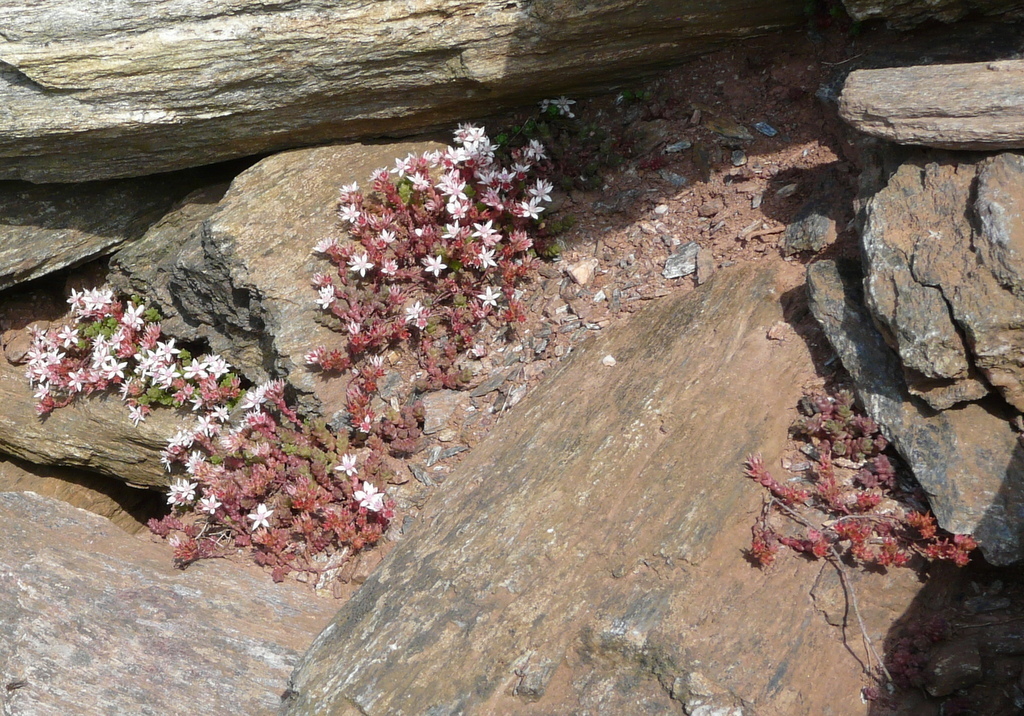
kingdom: Plantae
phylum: Tracheophyta
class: Magnoliopsida
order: Saxifragales
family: Crassulaceae
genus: Sedum
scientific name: Sedum anglicum
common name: English stonecrop
